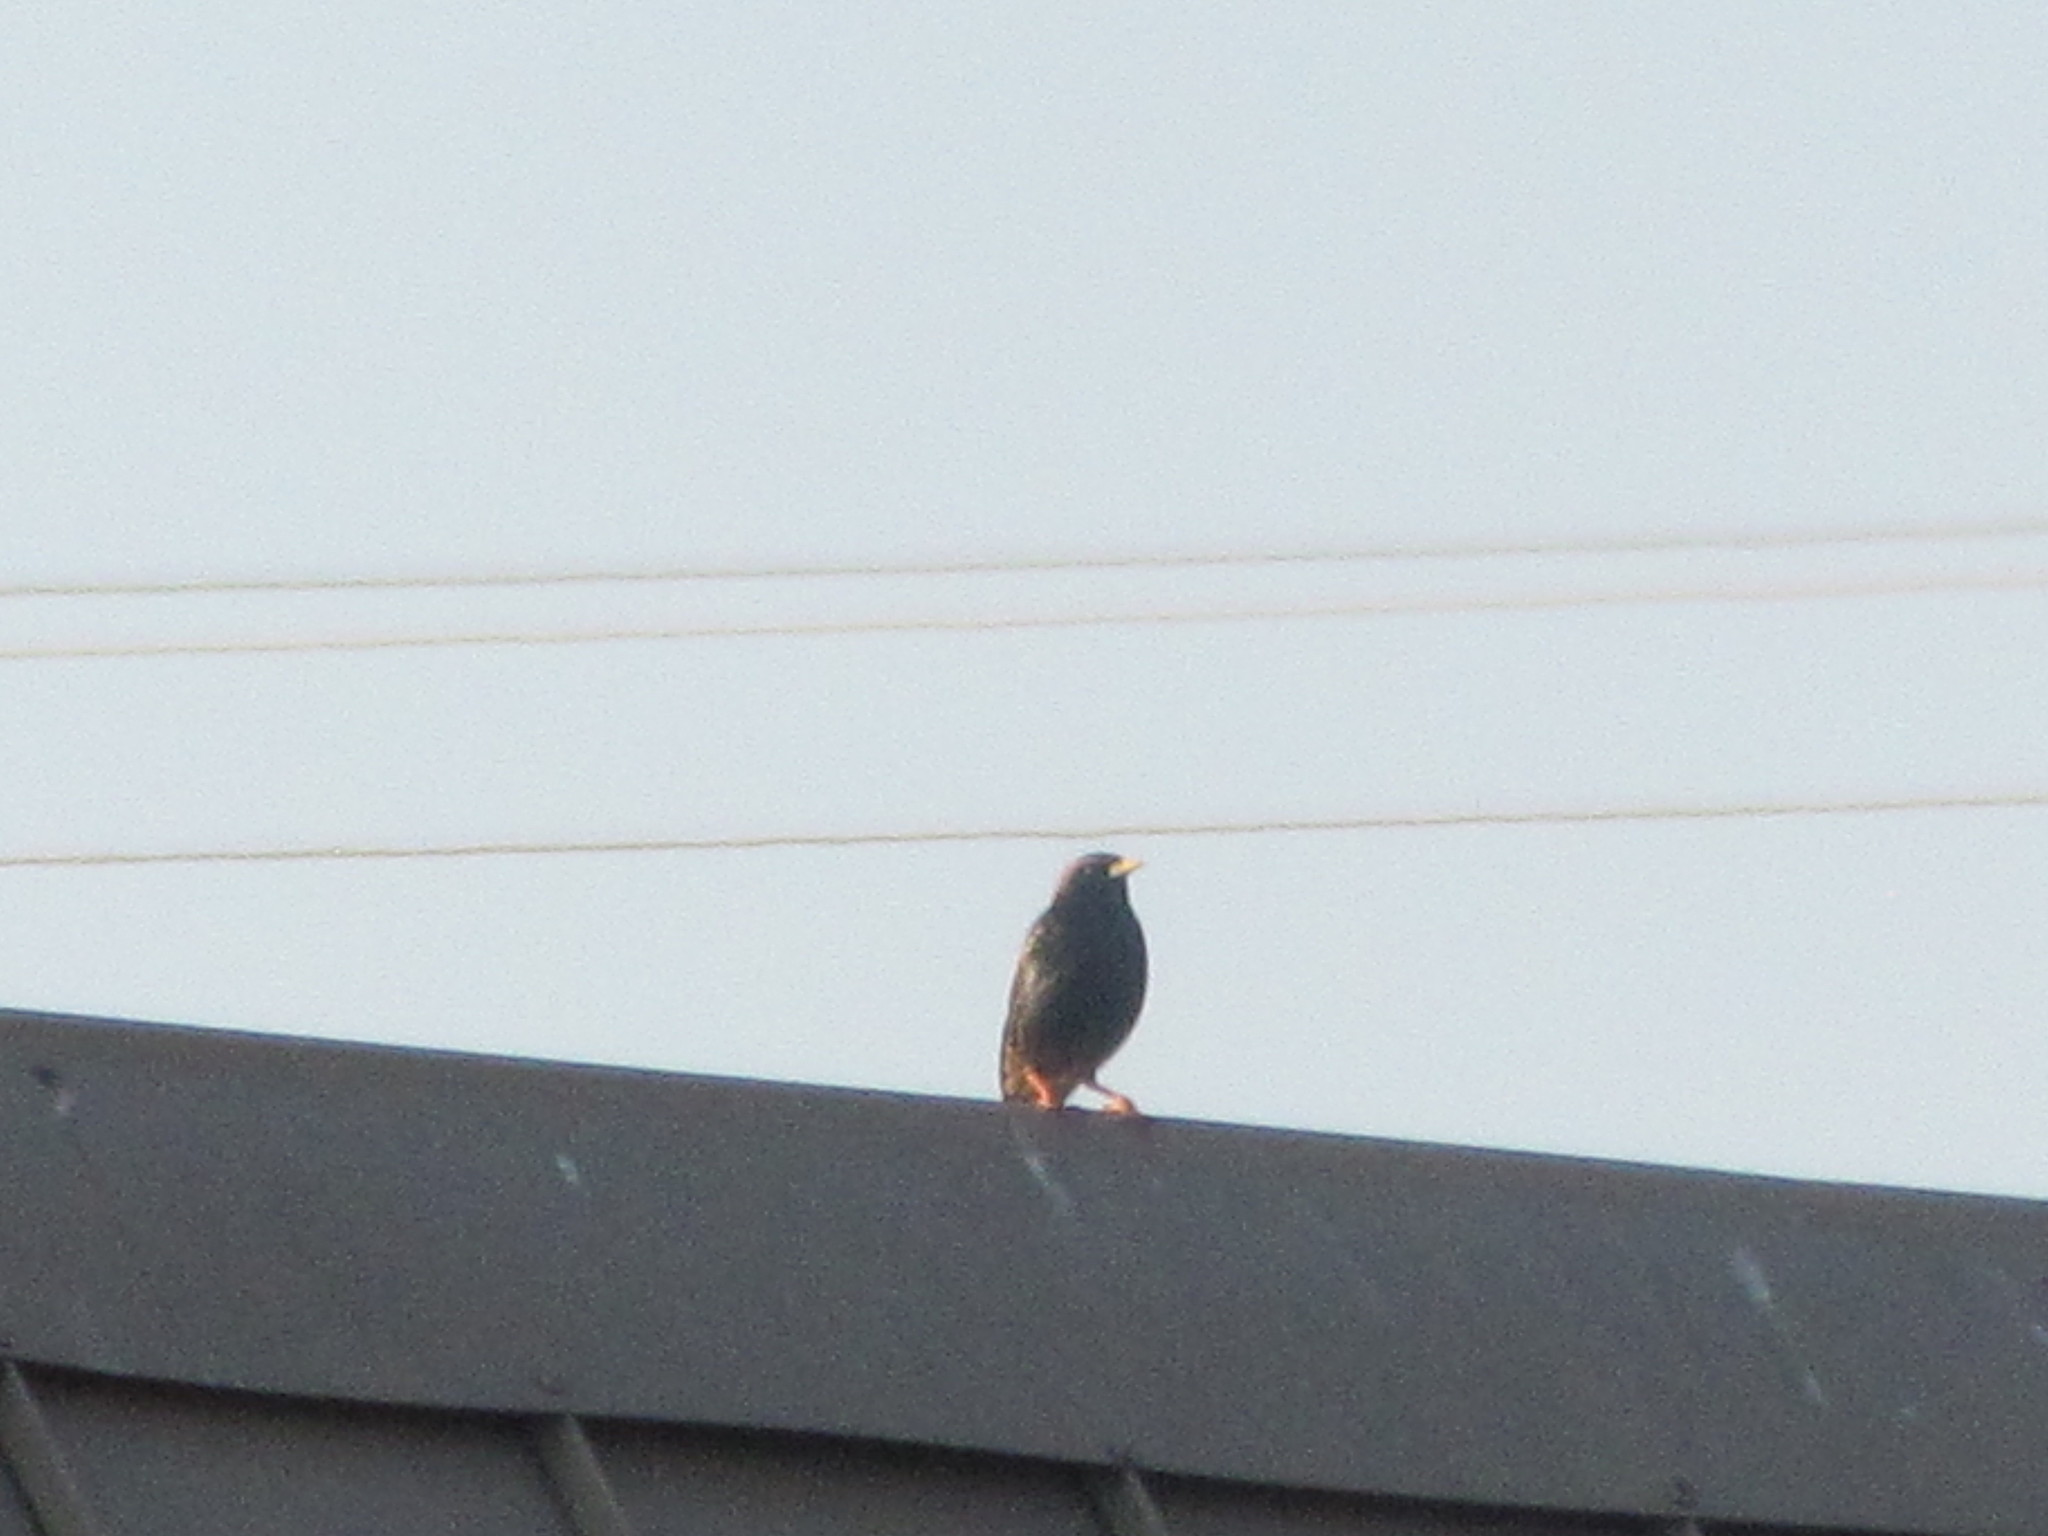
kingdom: Animalia
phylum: Chordata
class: Aves
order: Passeriformes
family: Sturnidae
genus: Sturnus
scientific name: Sturnus vulgaris
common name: Common starling
